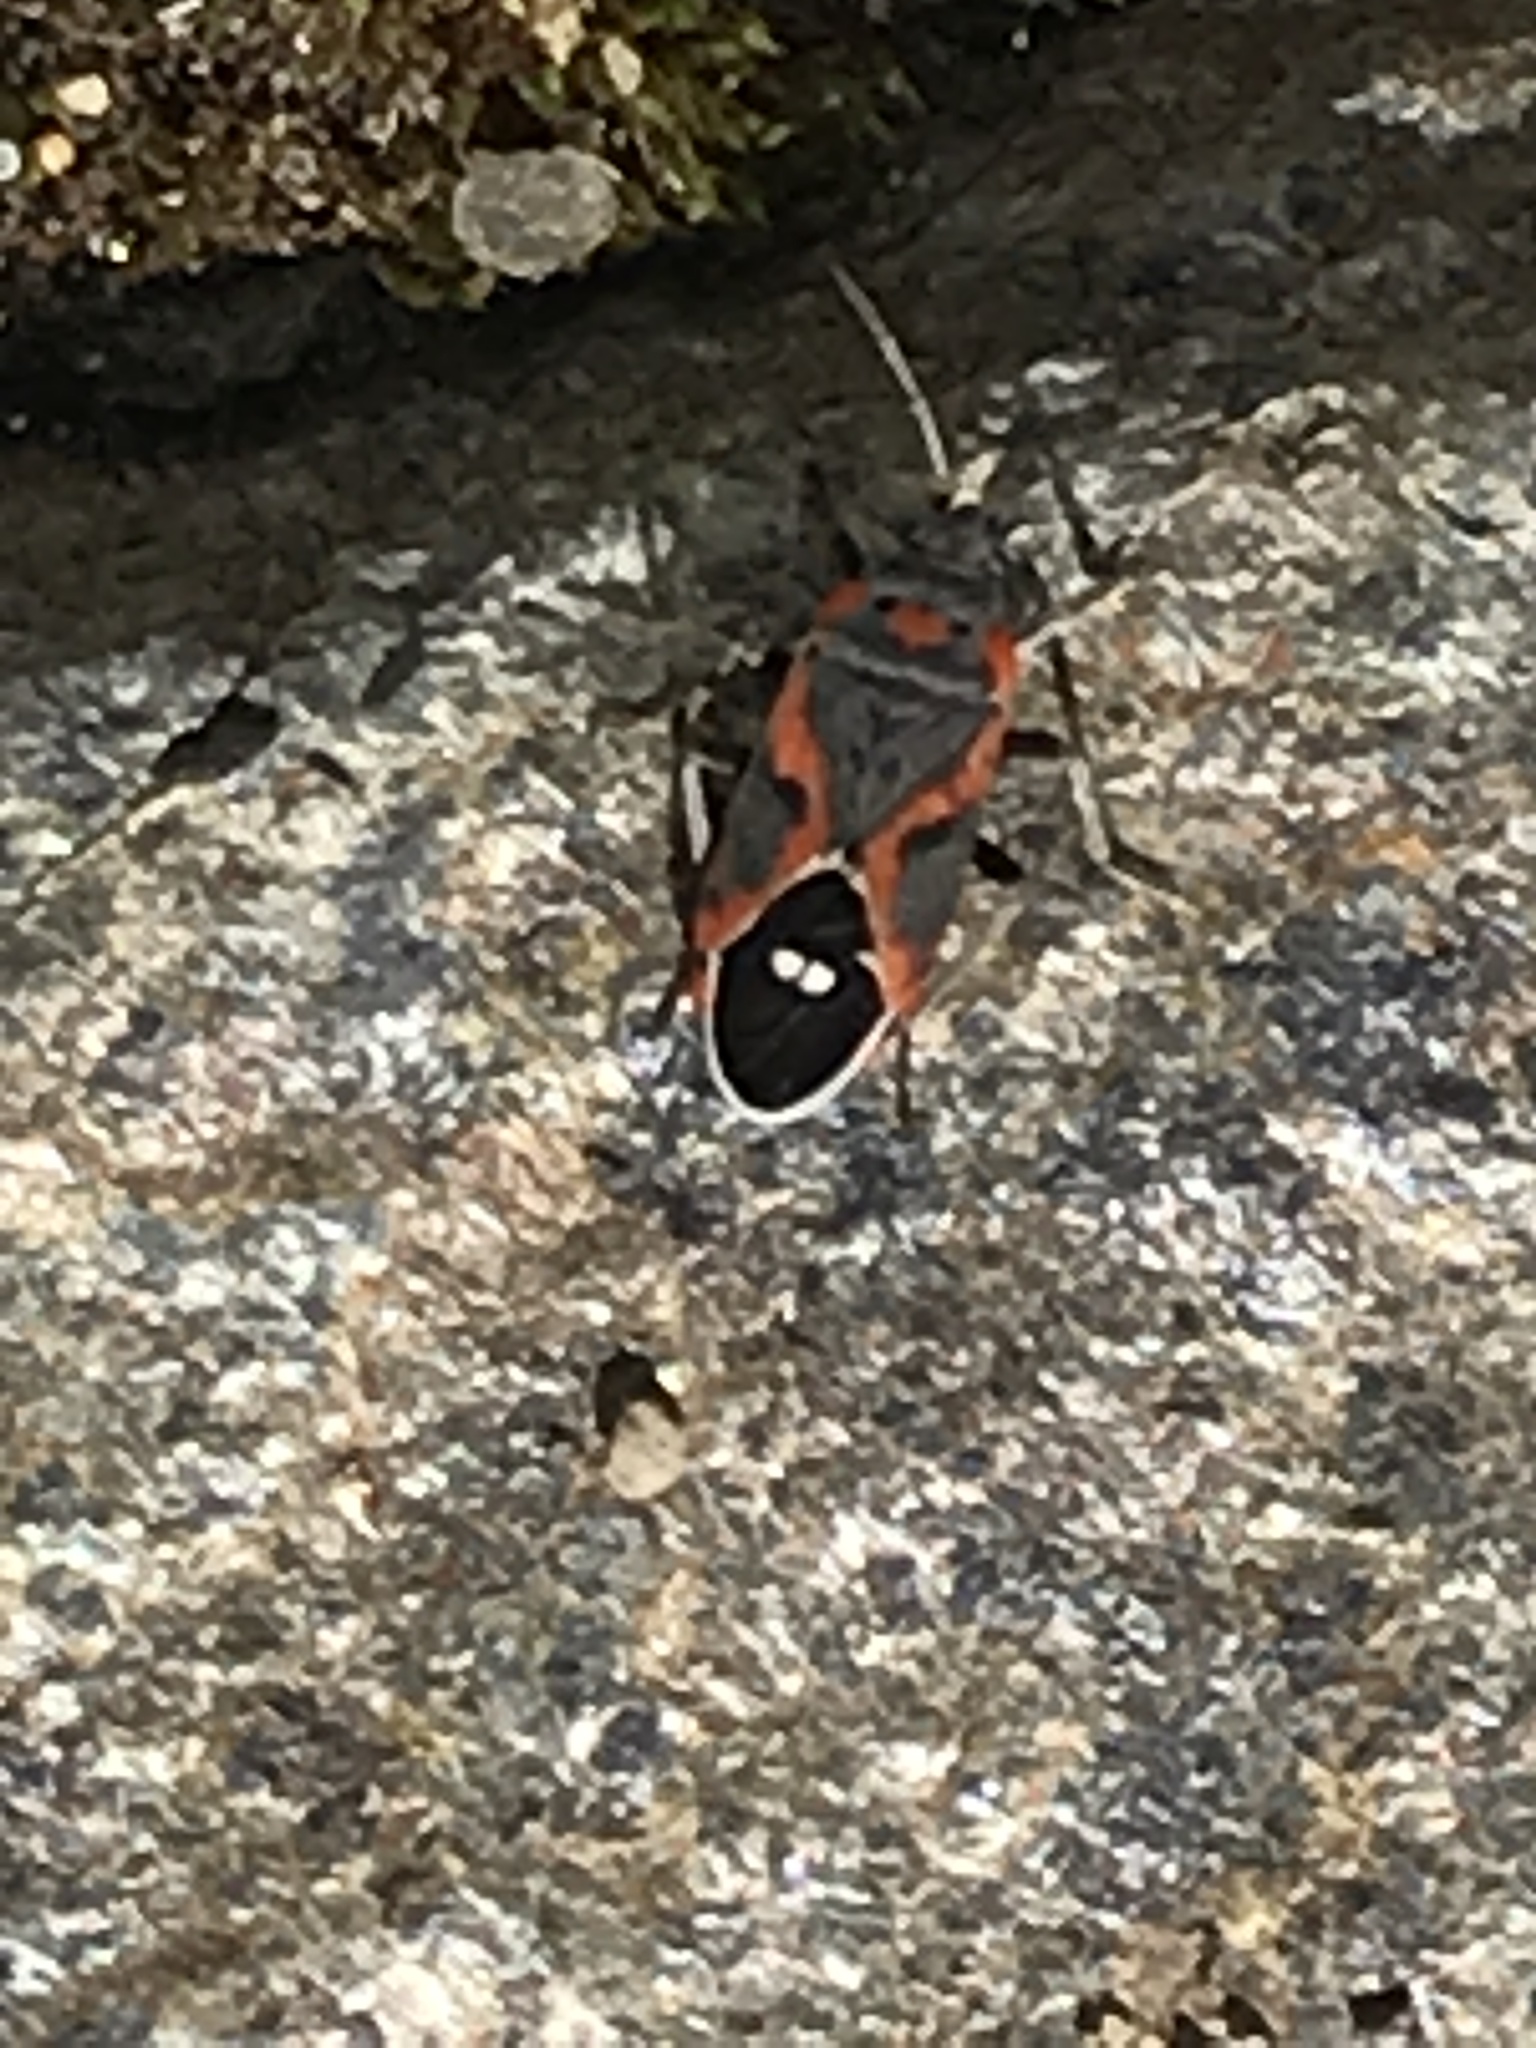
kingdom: Animalia
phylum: Arthropoda
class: Insecta
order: Hemiptera
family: Lygaeidae
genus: Lygaeus
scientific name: Lygaeus kalmii
